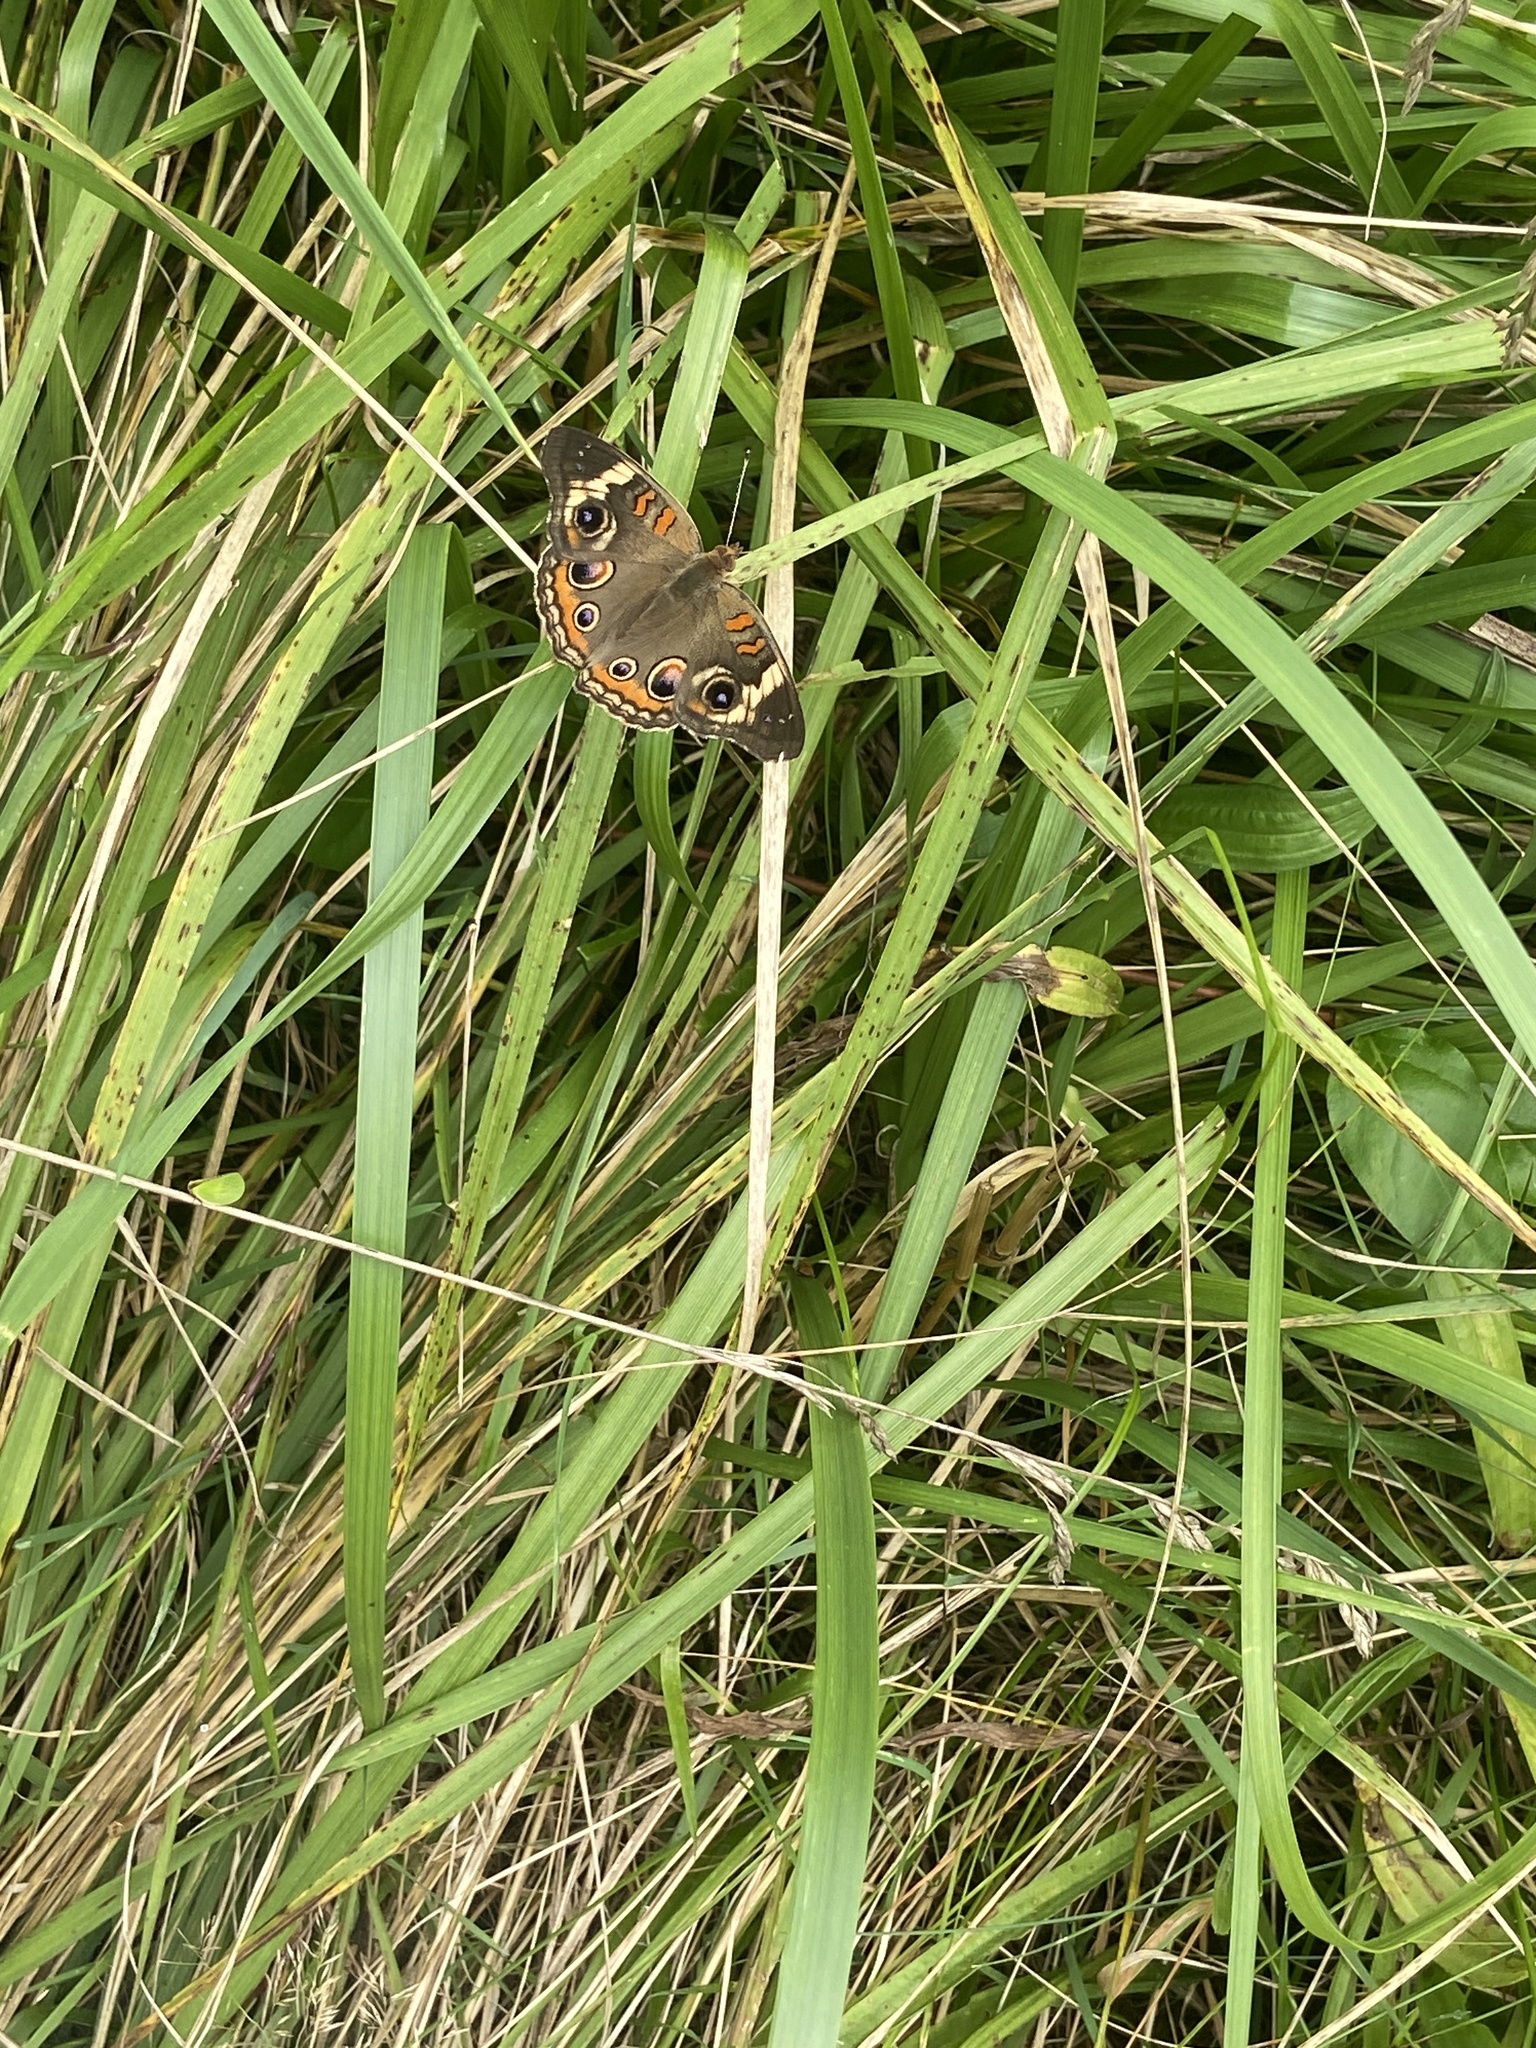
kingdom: Animalia
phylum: Arthropoda
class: Insecta
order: Lepidoptera
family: Nymphalidae
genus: Junonia
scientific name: Junonia coenia
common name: Common buckeye
